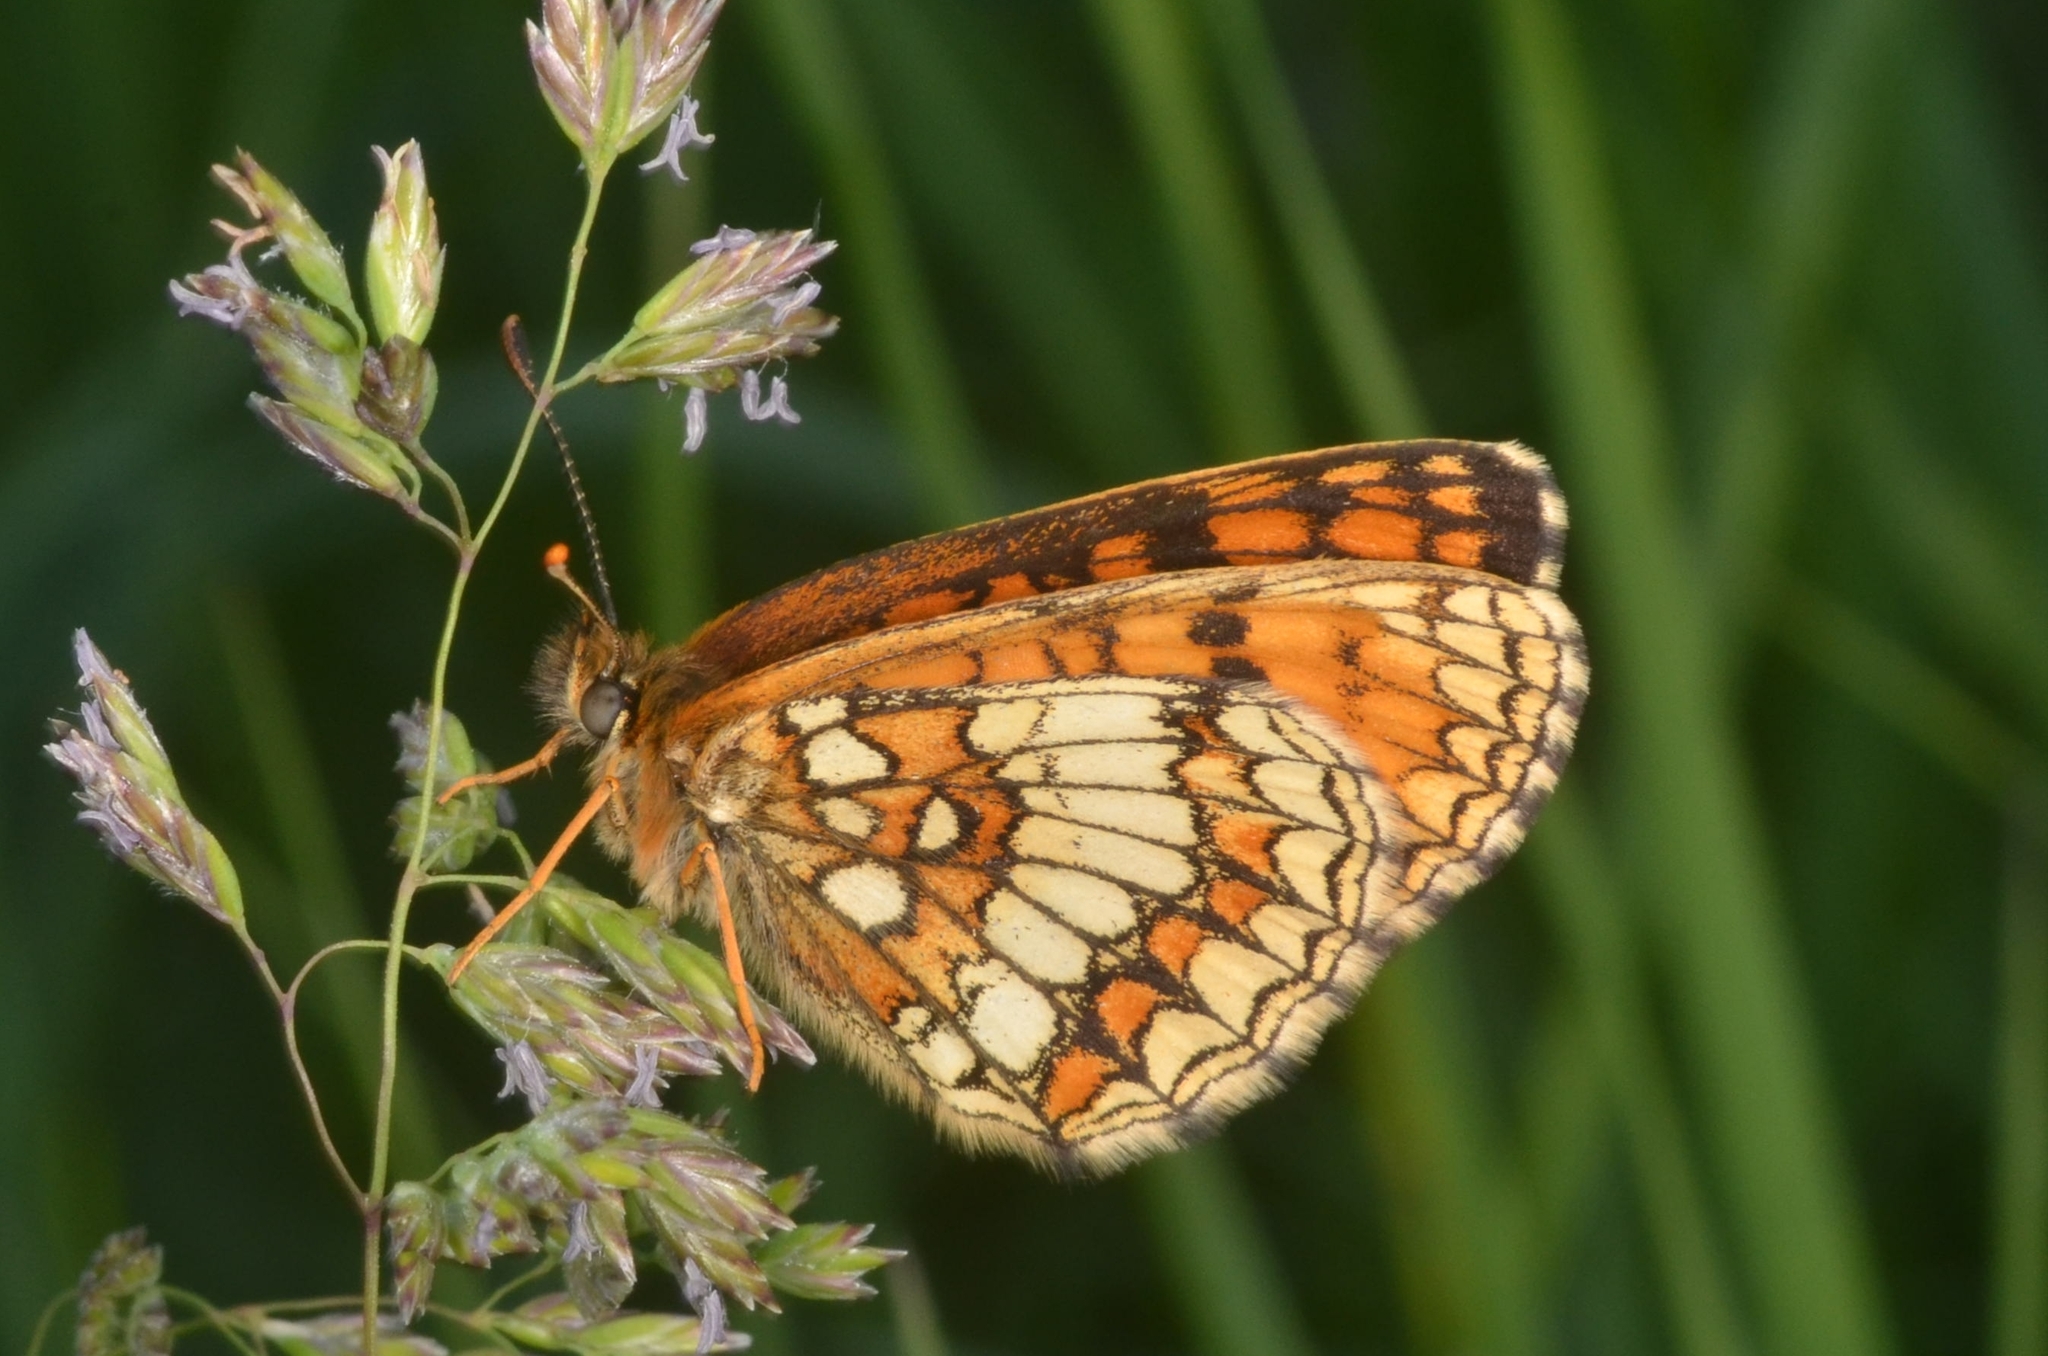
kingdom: Animalia
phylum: Arthropoda
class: Insecta
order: Lepidoptera
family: Nymphalidae
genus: Melitaea
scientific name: Melitaea athalia
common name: Heath fritillary
